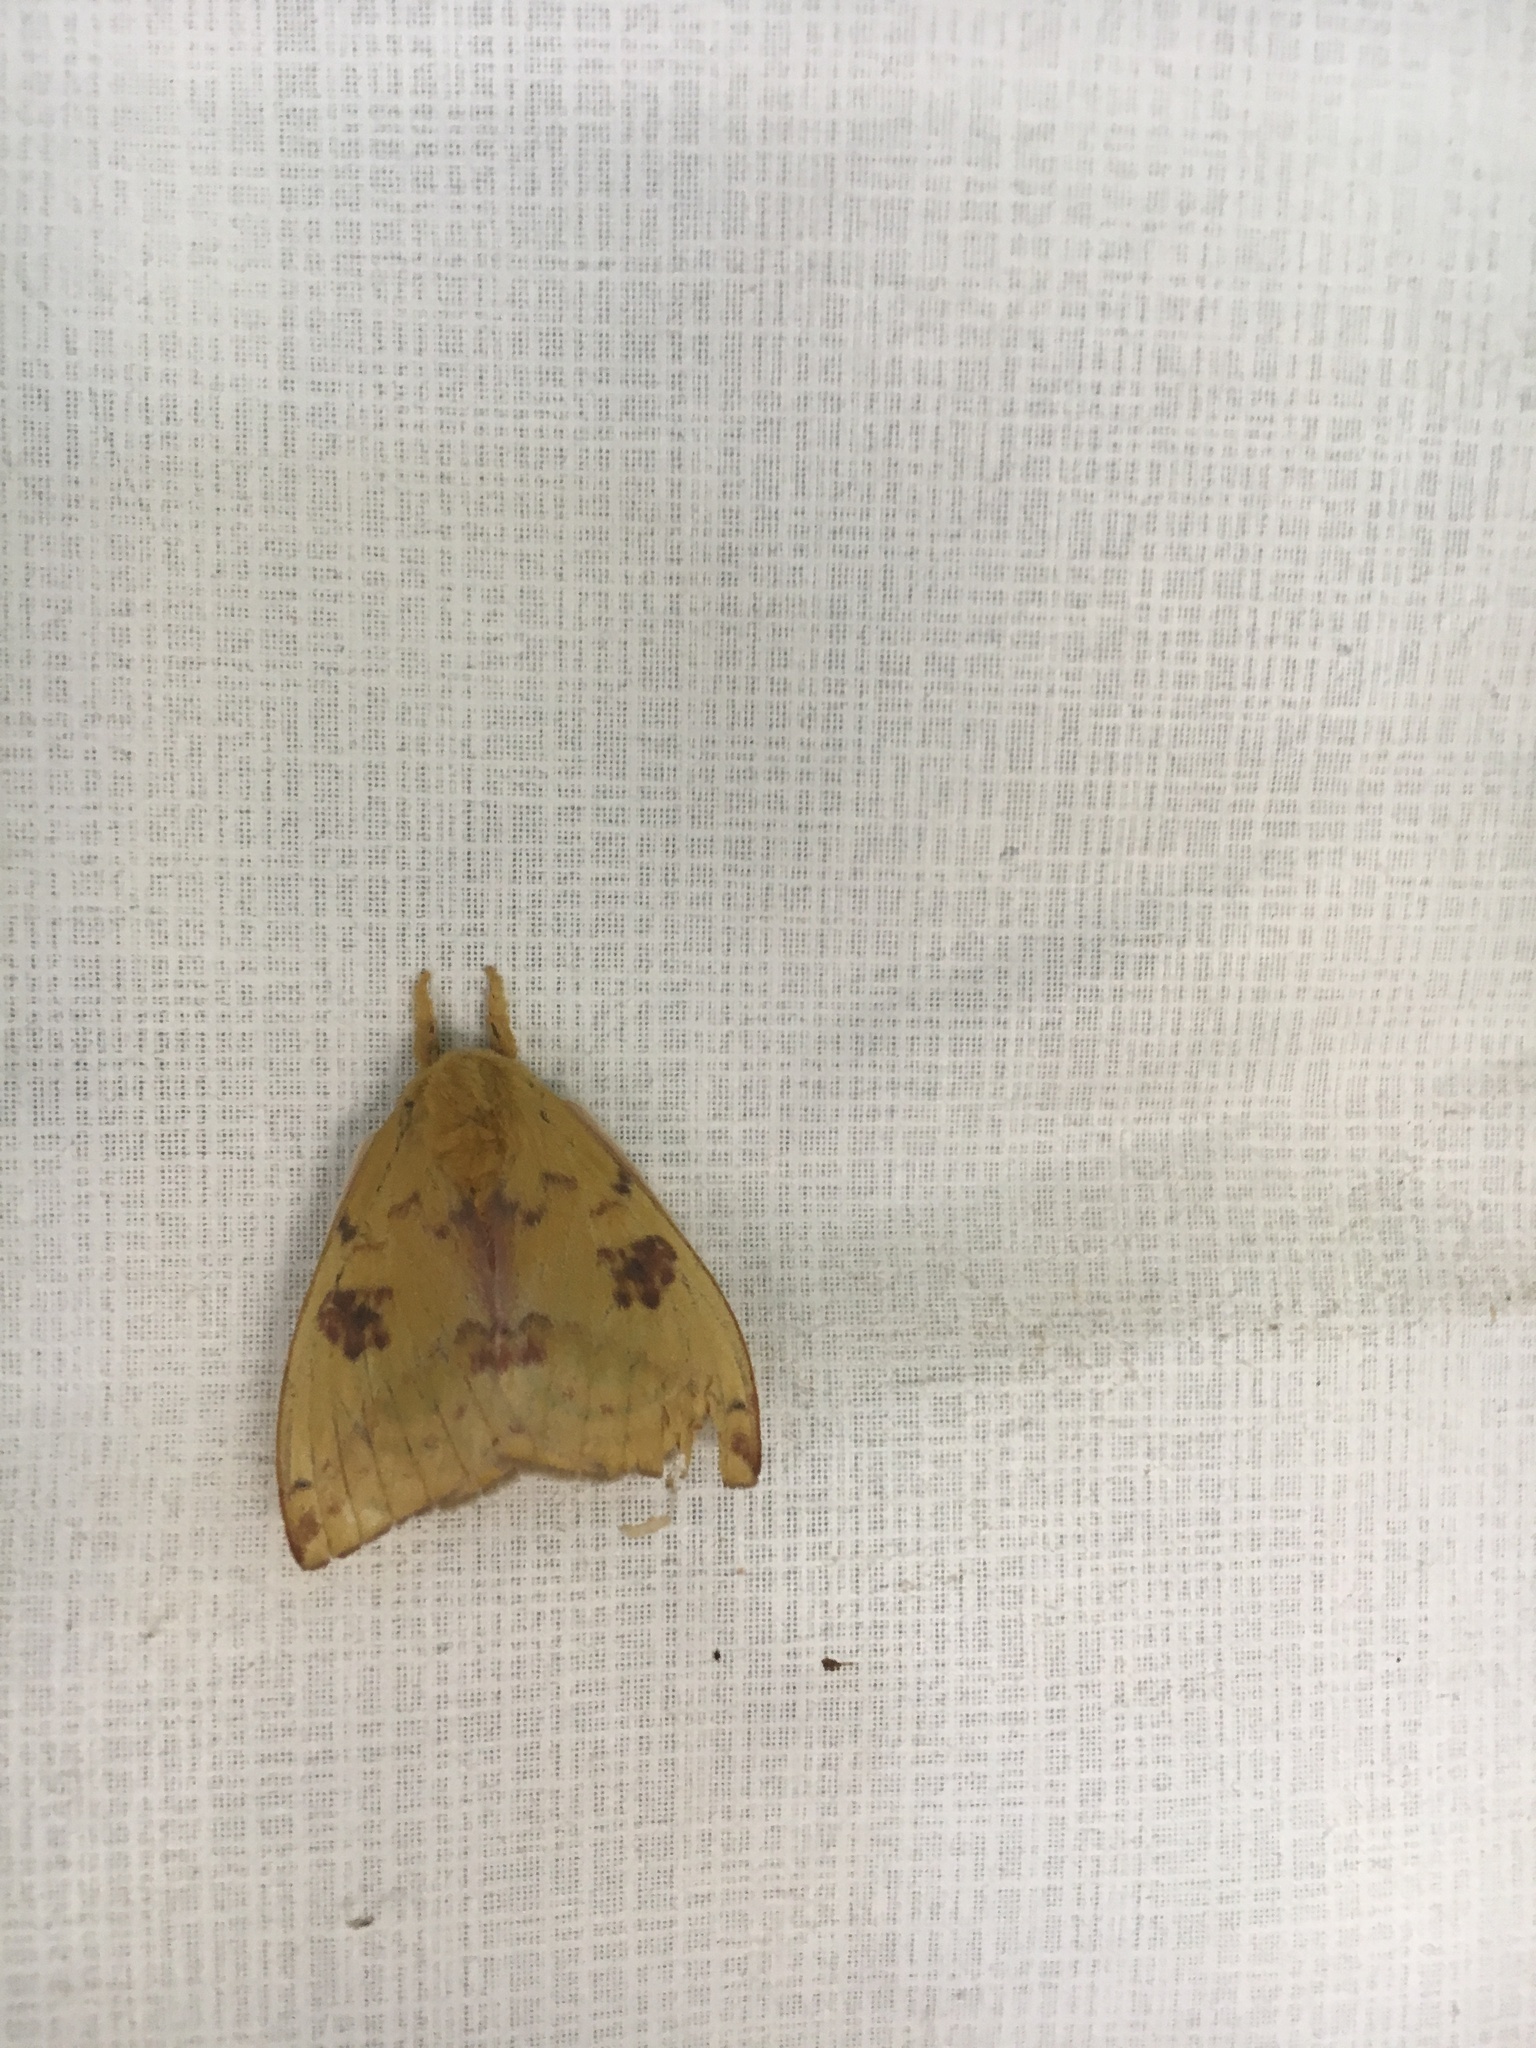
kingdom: Animalia
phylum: Arthropoda
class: Insecta
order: Lepidoptera
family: Saturniidae
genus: Automeris
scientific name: Automeris io
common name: Io moth
